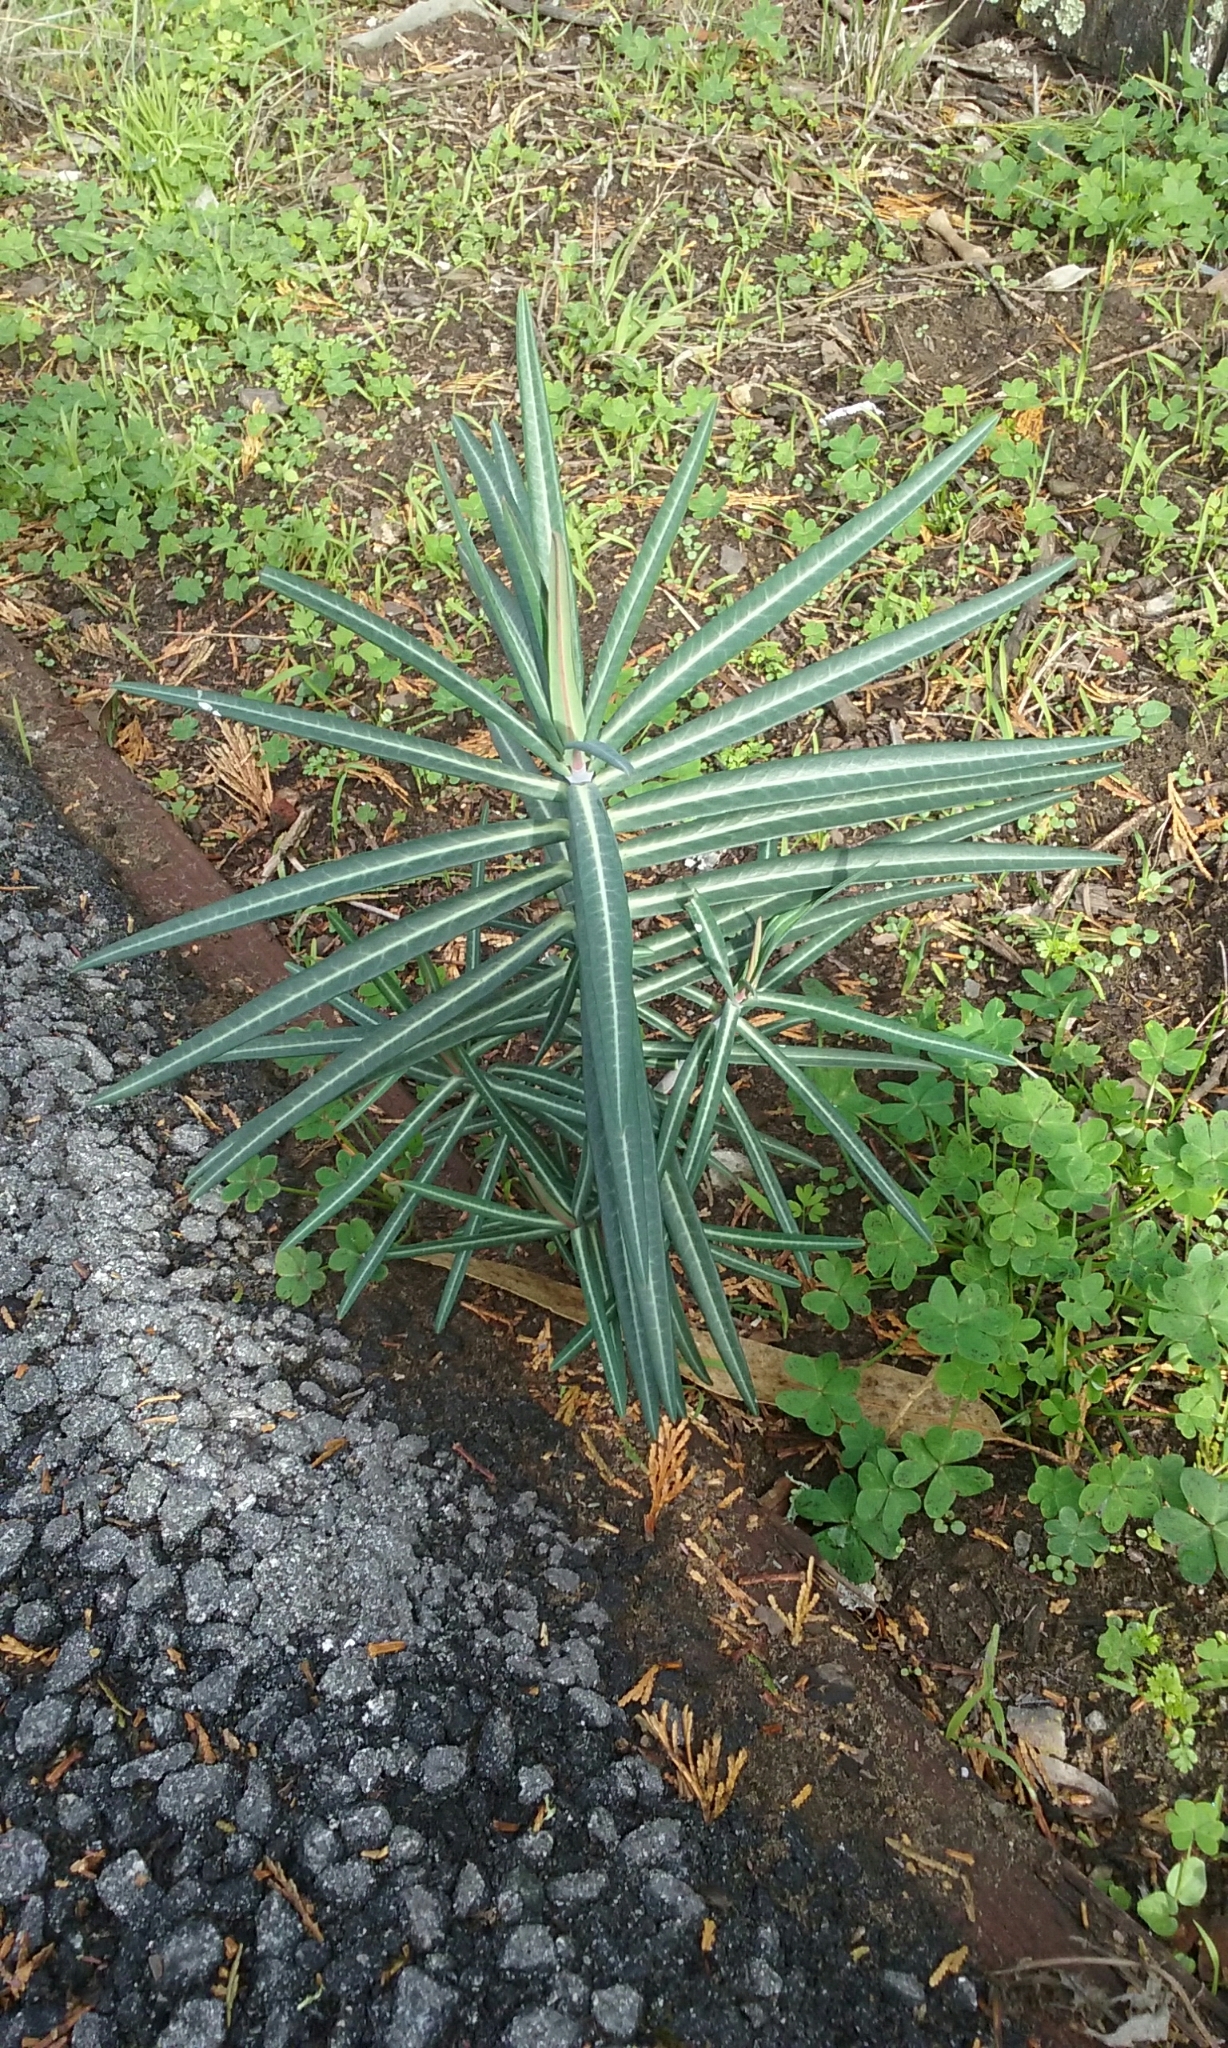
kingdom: Plantae
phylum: Tracheophyta
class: Magnoliopsida
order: Malpighiales
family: Euphorbiaceae
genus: Euphorbia
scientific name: Euphorbia lathyris
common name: Caper spurge
